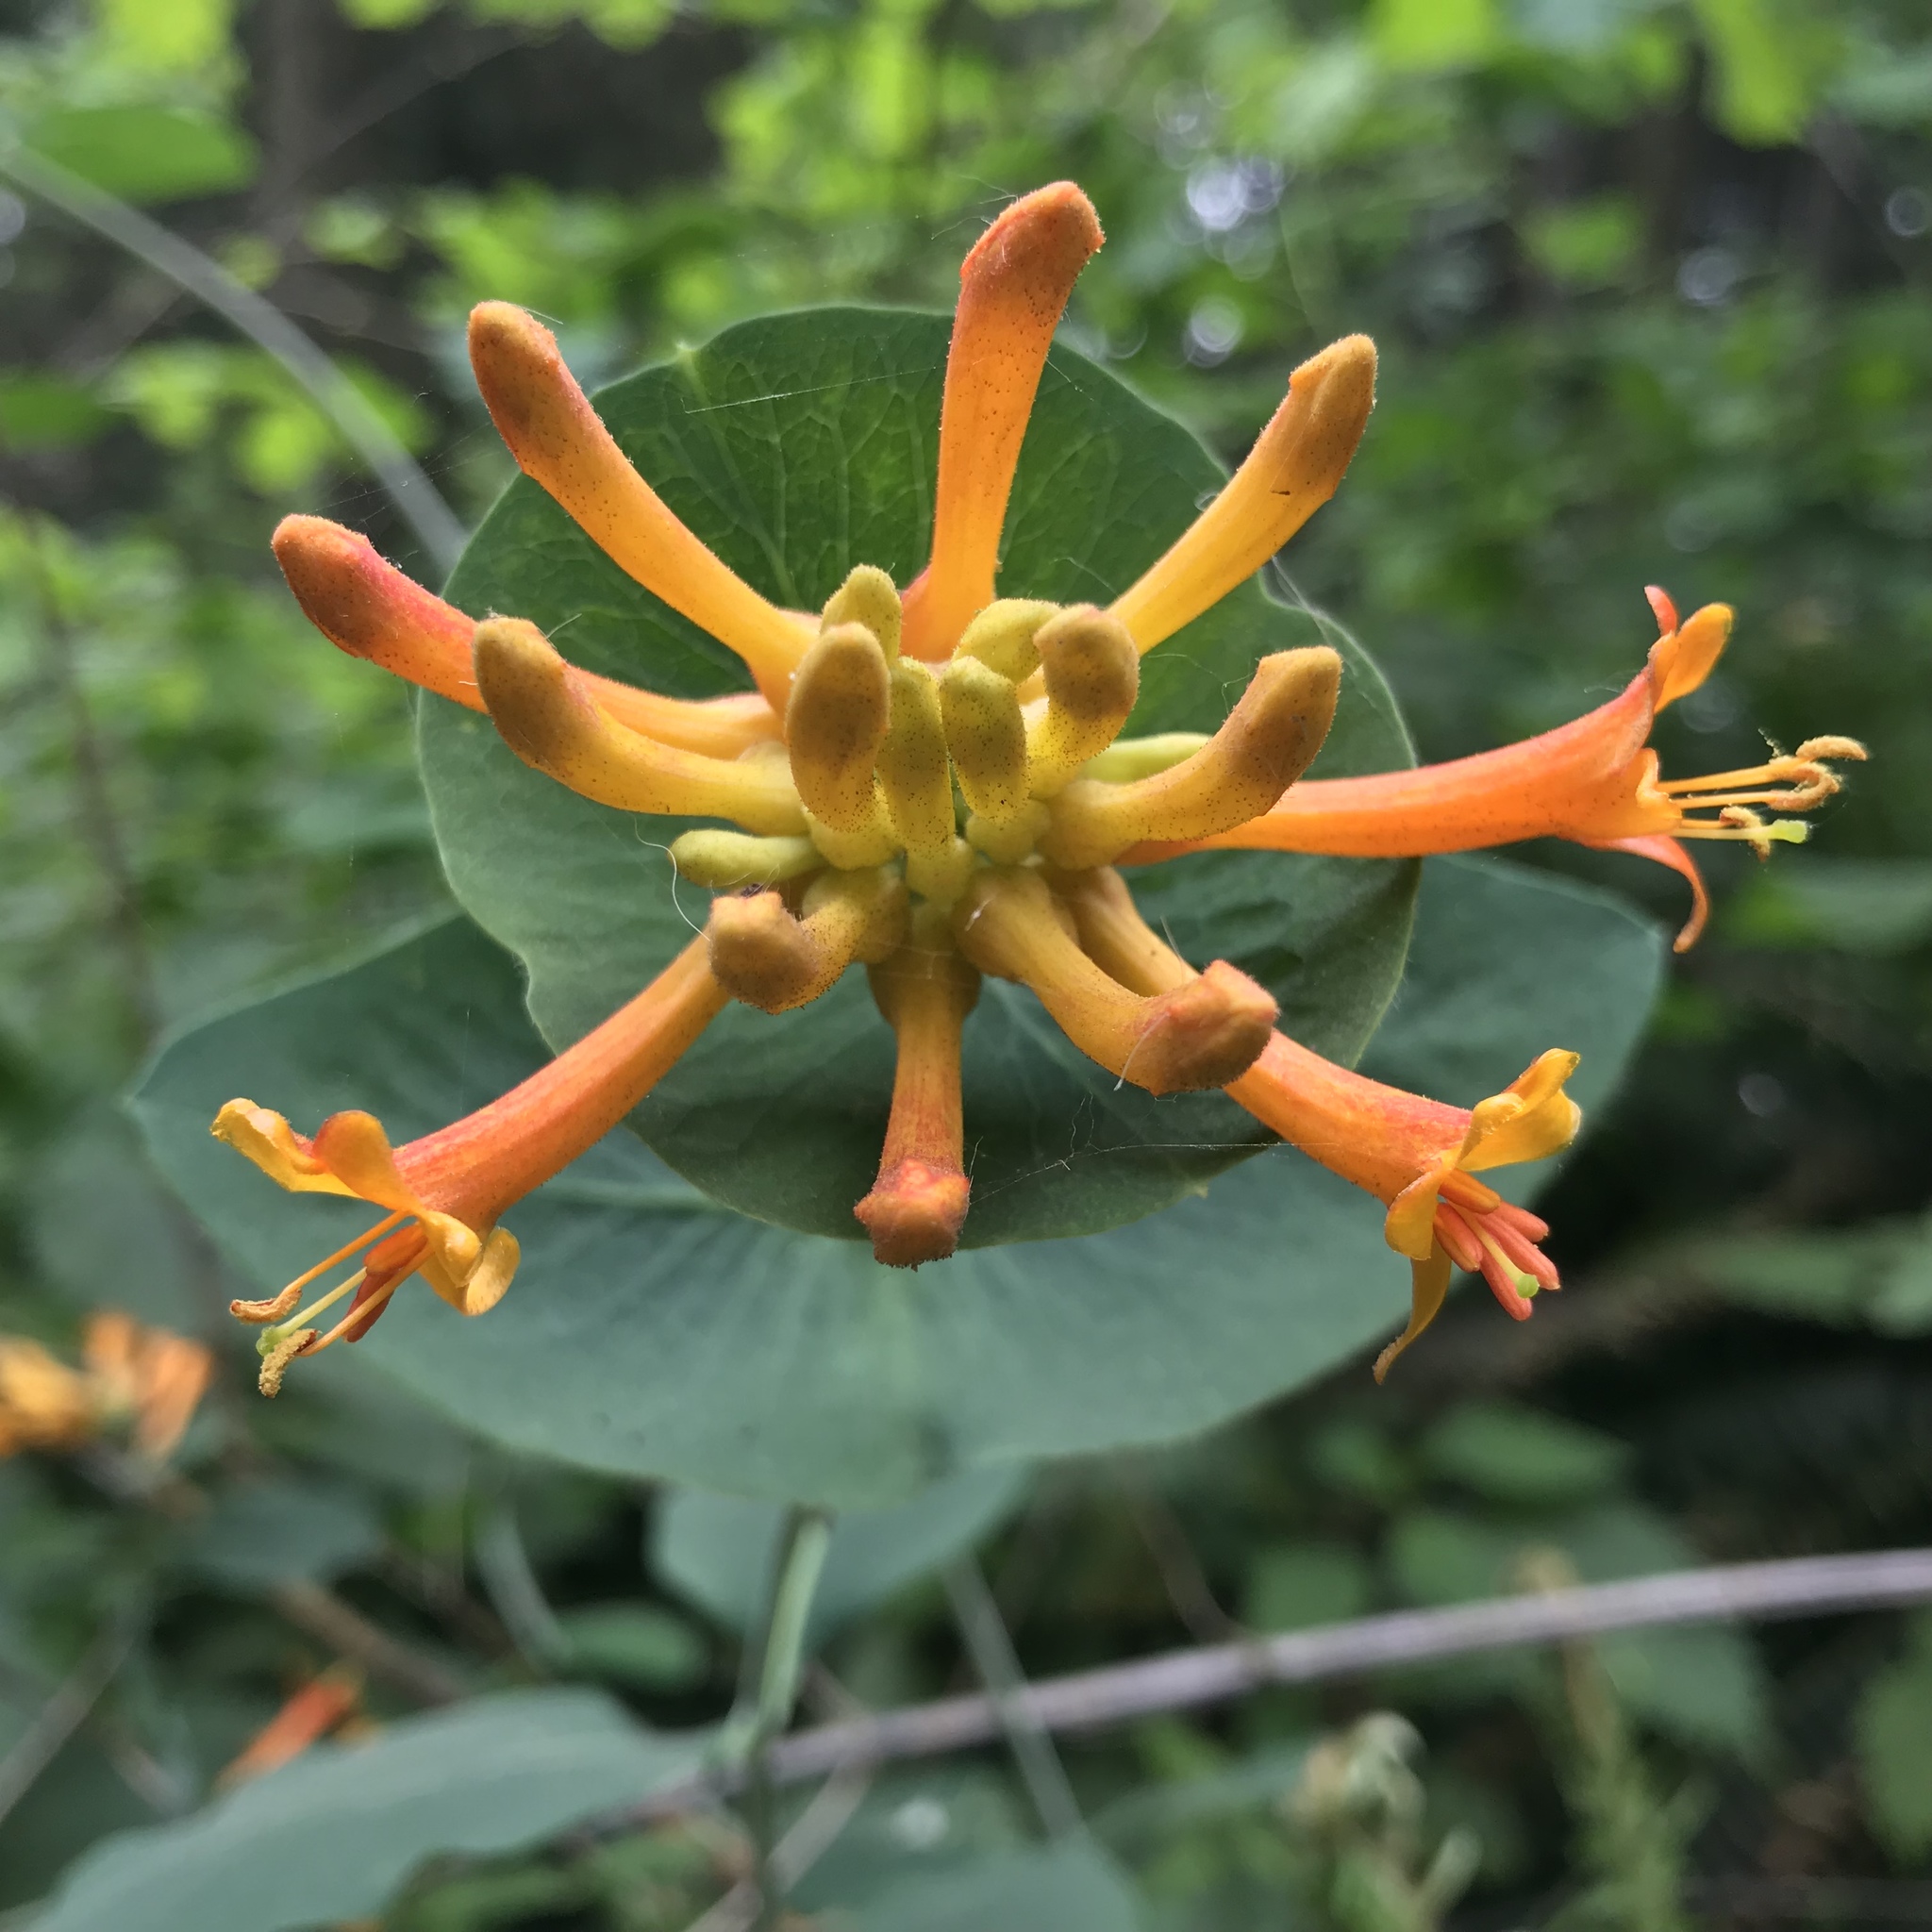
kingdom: Plantae
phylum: Tracheophyta
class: Magnoliopsida
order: Dipsacales
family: Caprifoliaceae
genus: Lonicera
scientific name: Lonicera ciliosa
